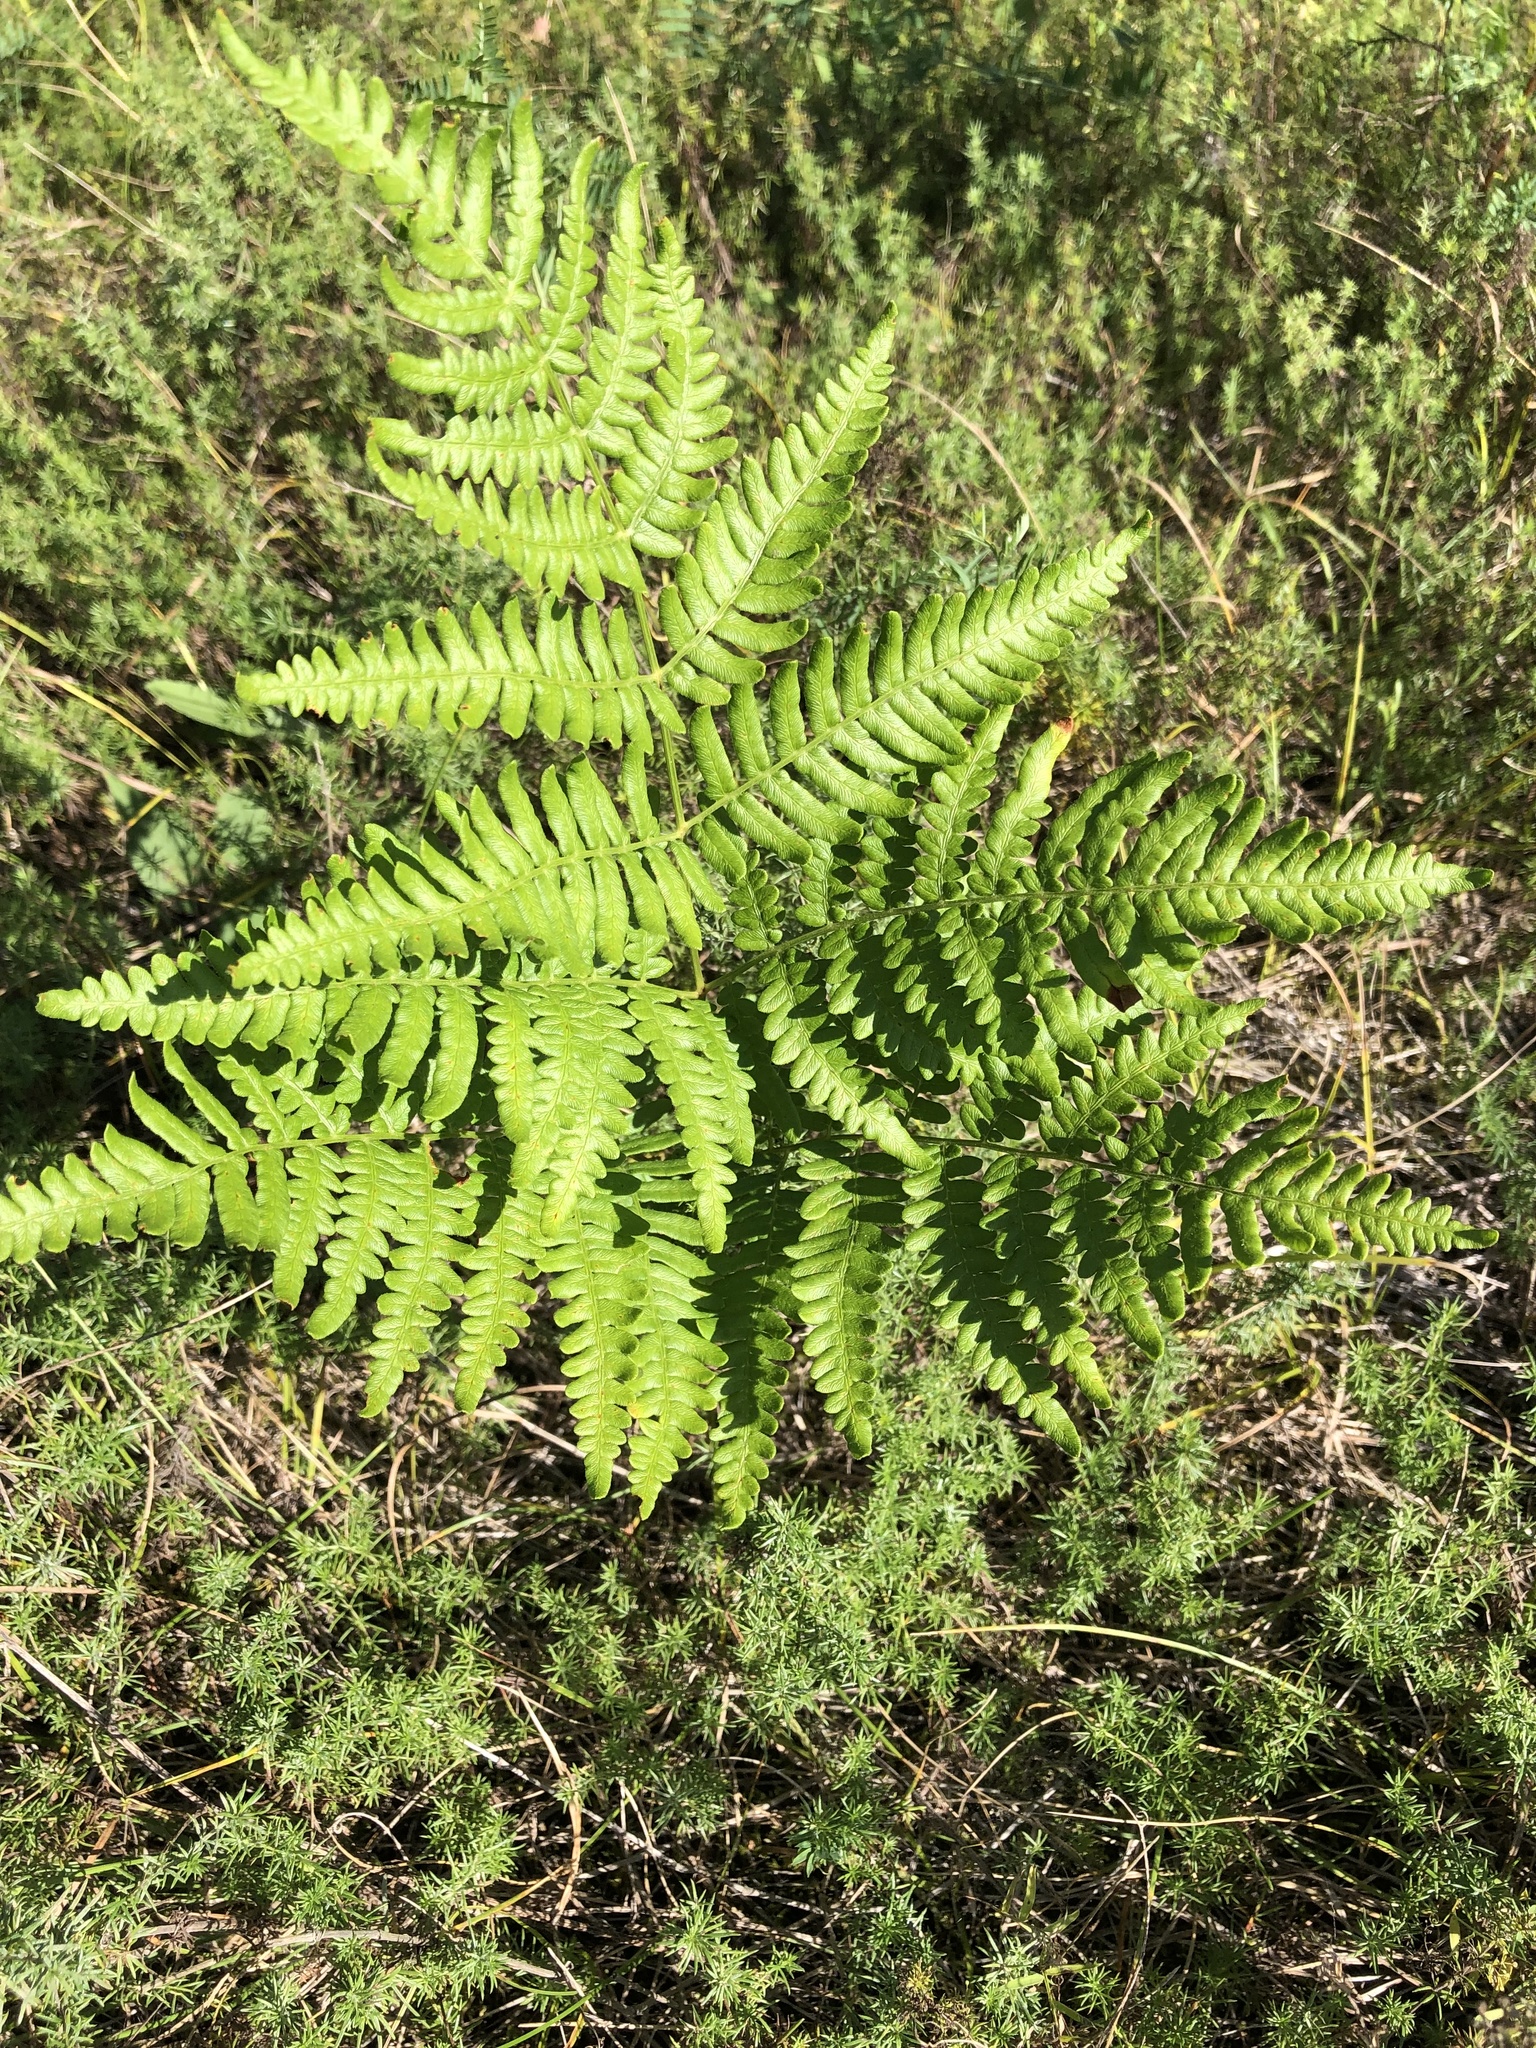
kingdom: Plantae
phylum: Tracheophyta
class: Polypodiopsida
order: Polypodiales
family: Dennstaedtiaceae
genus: Pteridium
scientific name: Pteridium aquilinum
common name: Bracken
